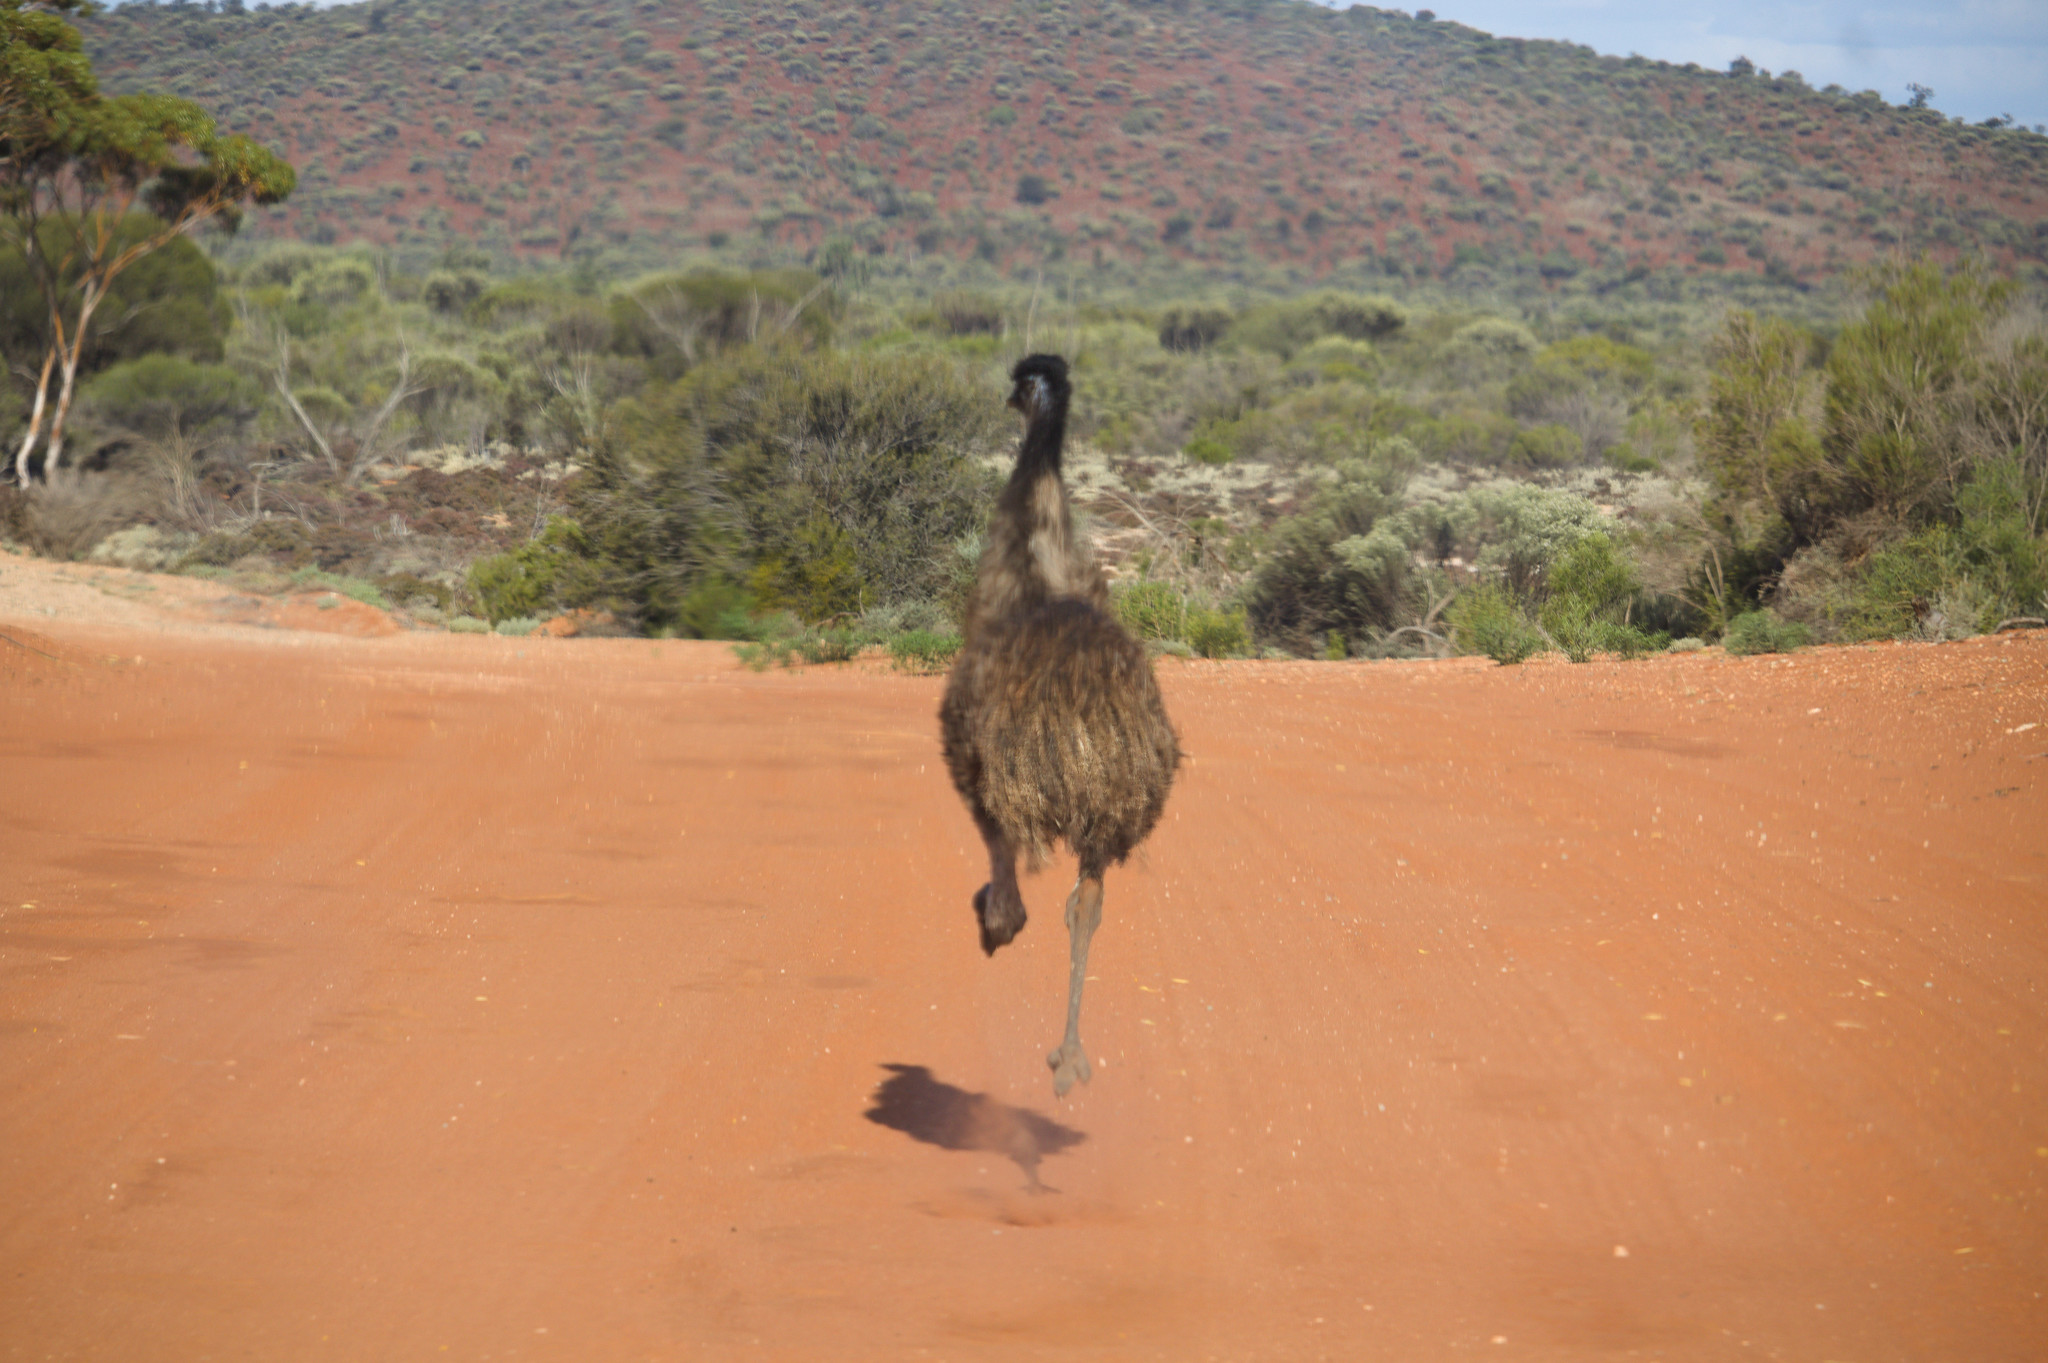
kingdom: Animalia
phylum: Chordata
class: Aves
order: Casuariiformes
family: Dromaiidae
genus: Dromaius
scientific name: Dromaius novaehollandiae
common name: Emu
